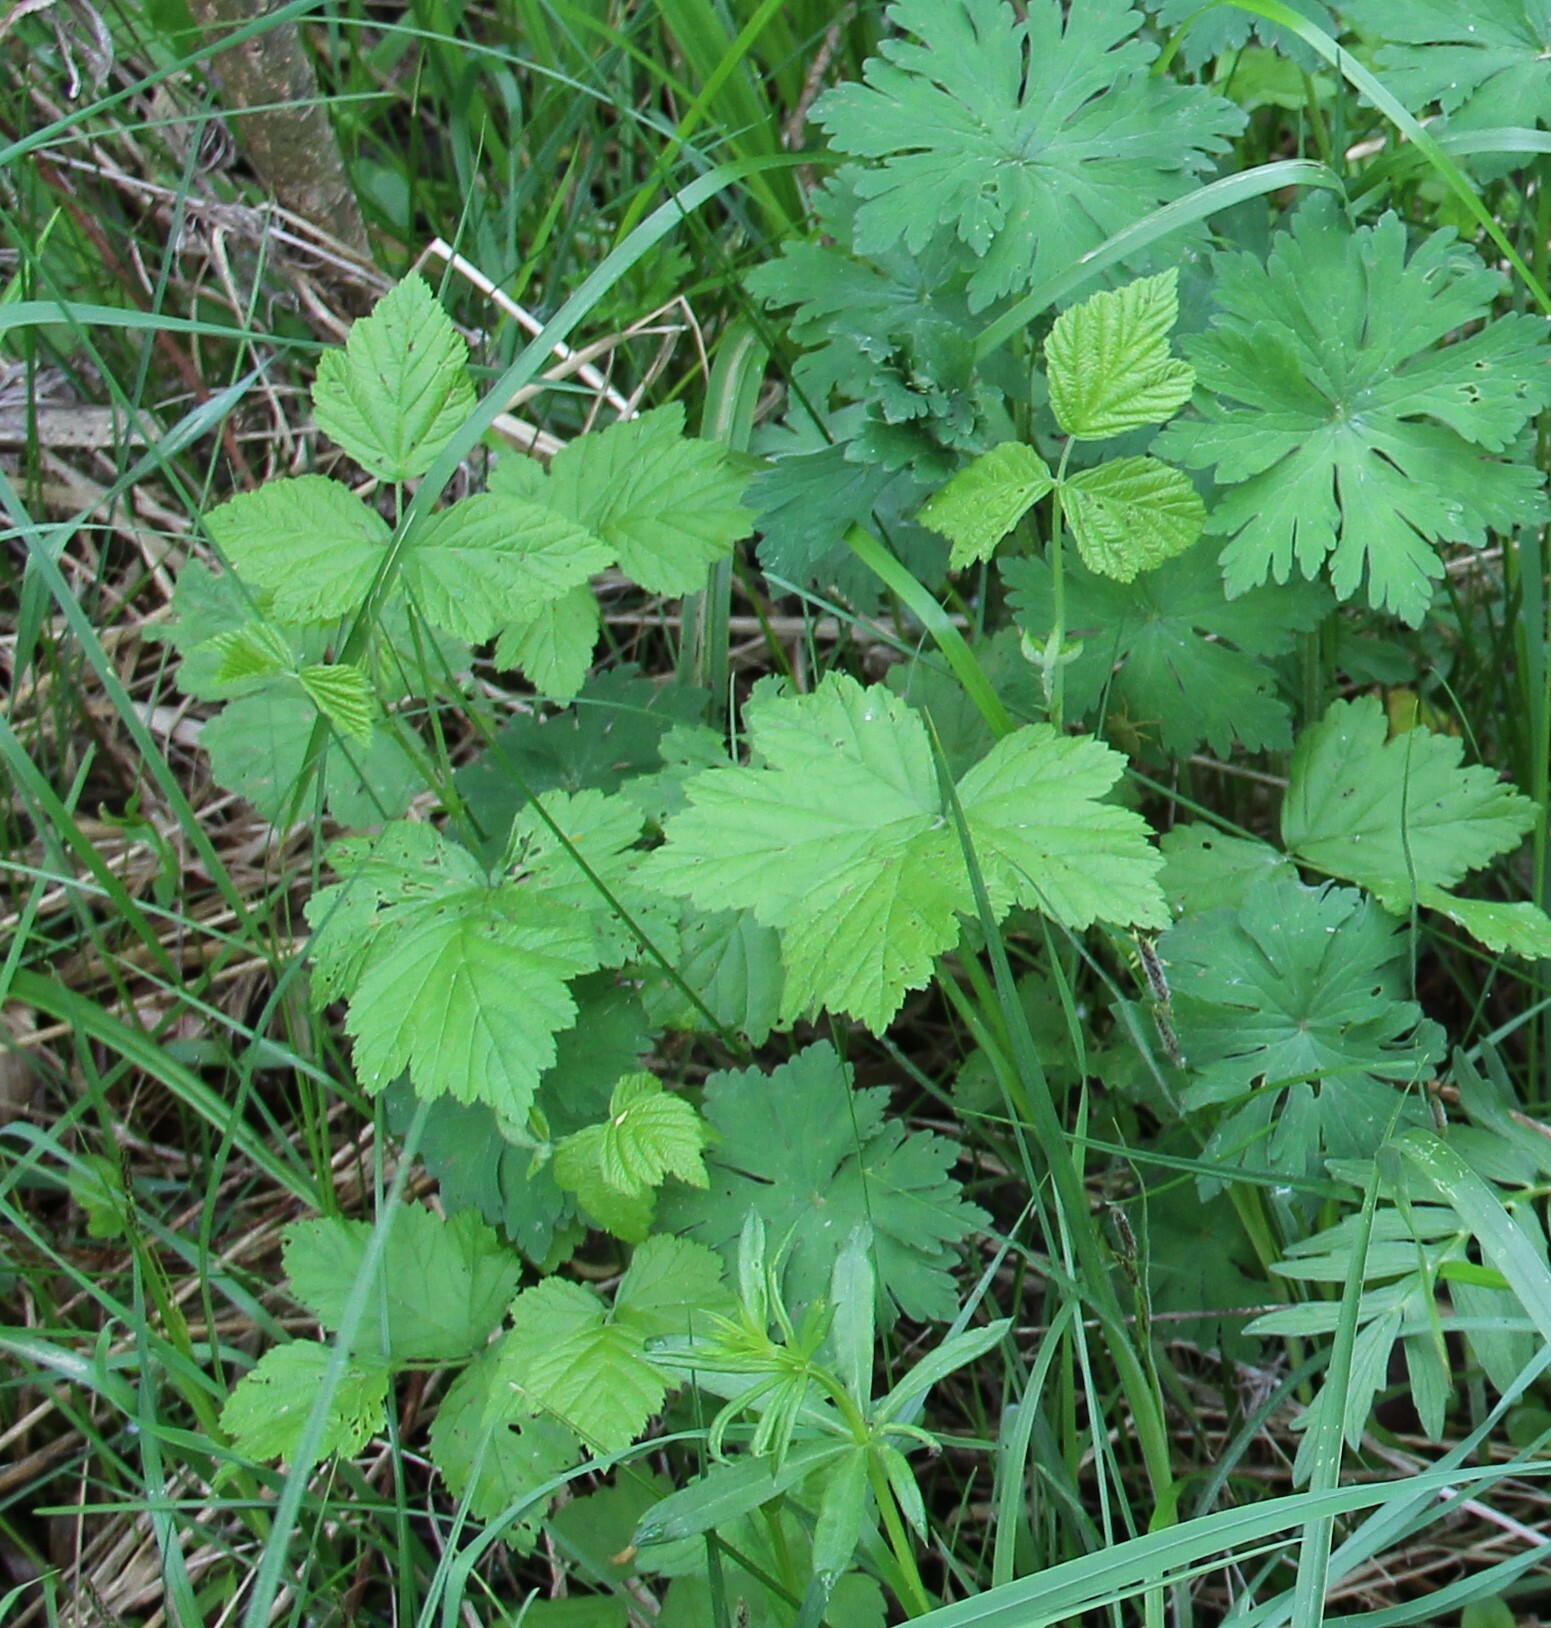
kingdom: Plantae
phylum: Tracheophyta
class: Magnoliopsida
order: Rosales
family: Rosaceae
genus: Rubus
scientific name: Rubus caesius
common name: Dewberry
